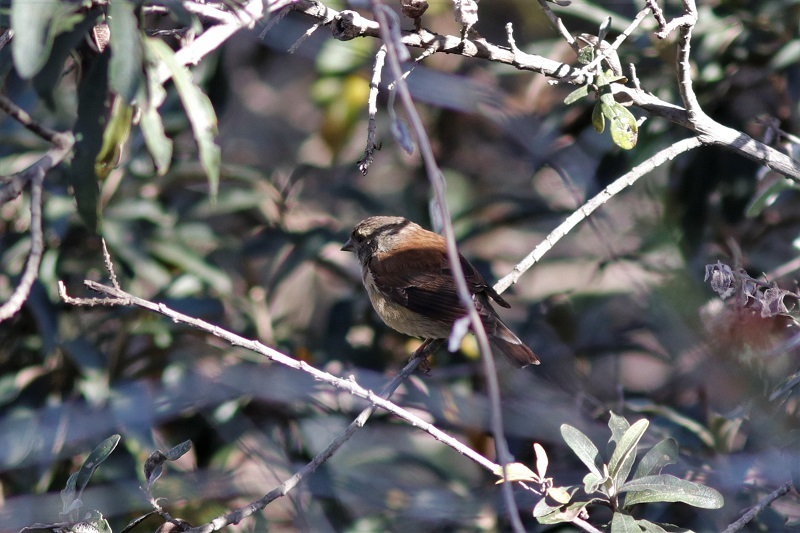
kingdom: Animalia
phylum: Chordata
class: Aves
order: Passeriformes
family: Fringillidae
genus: Crithagra
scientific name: Crithagra totta
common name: Cape siskin
